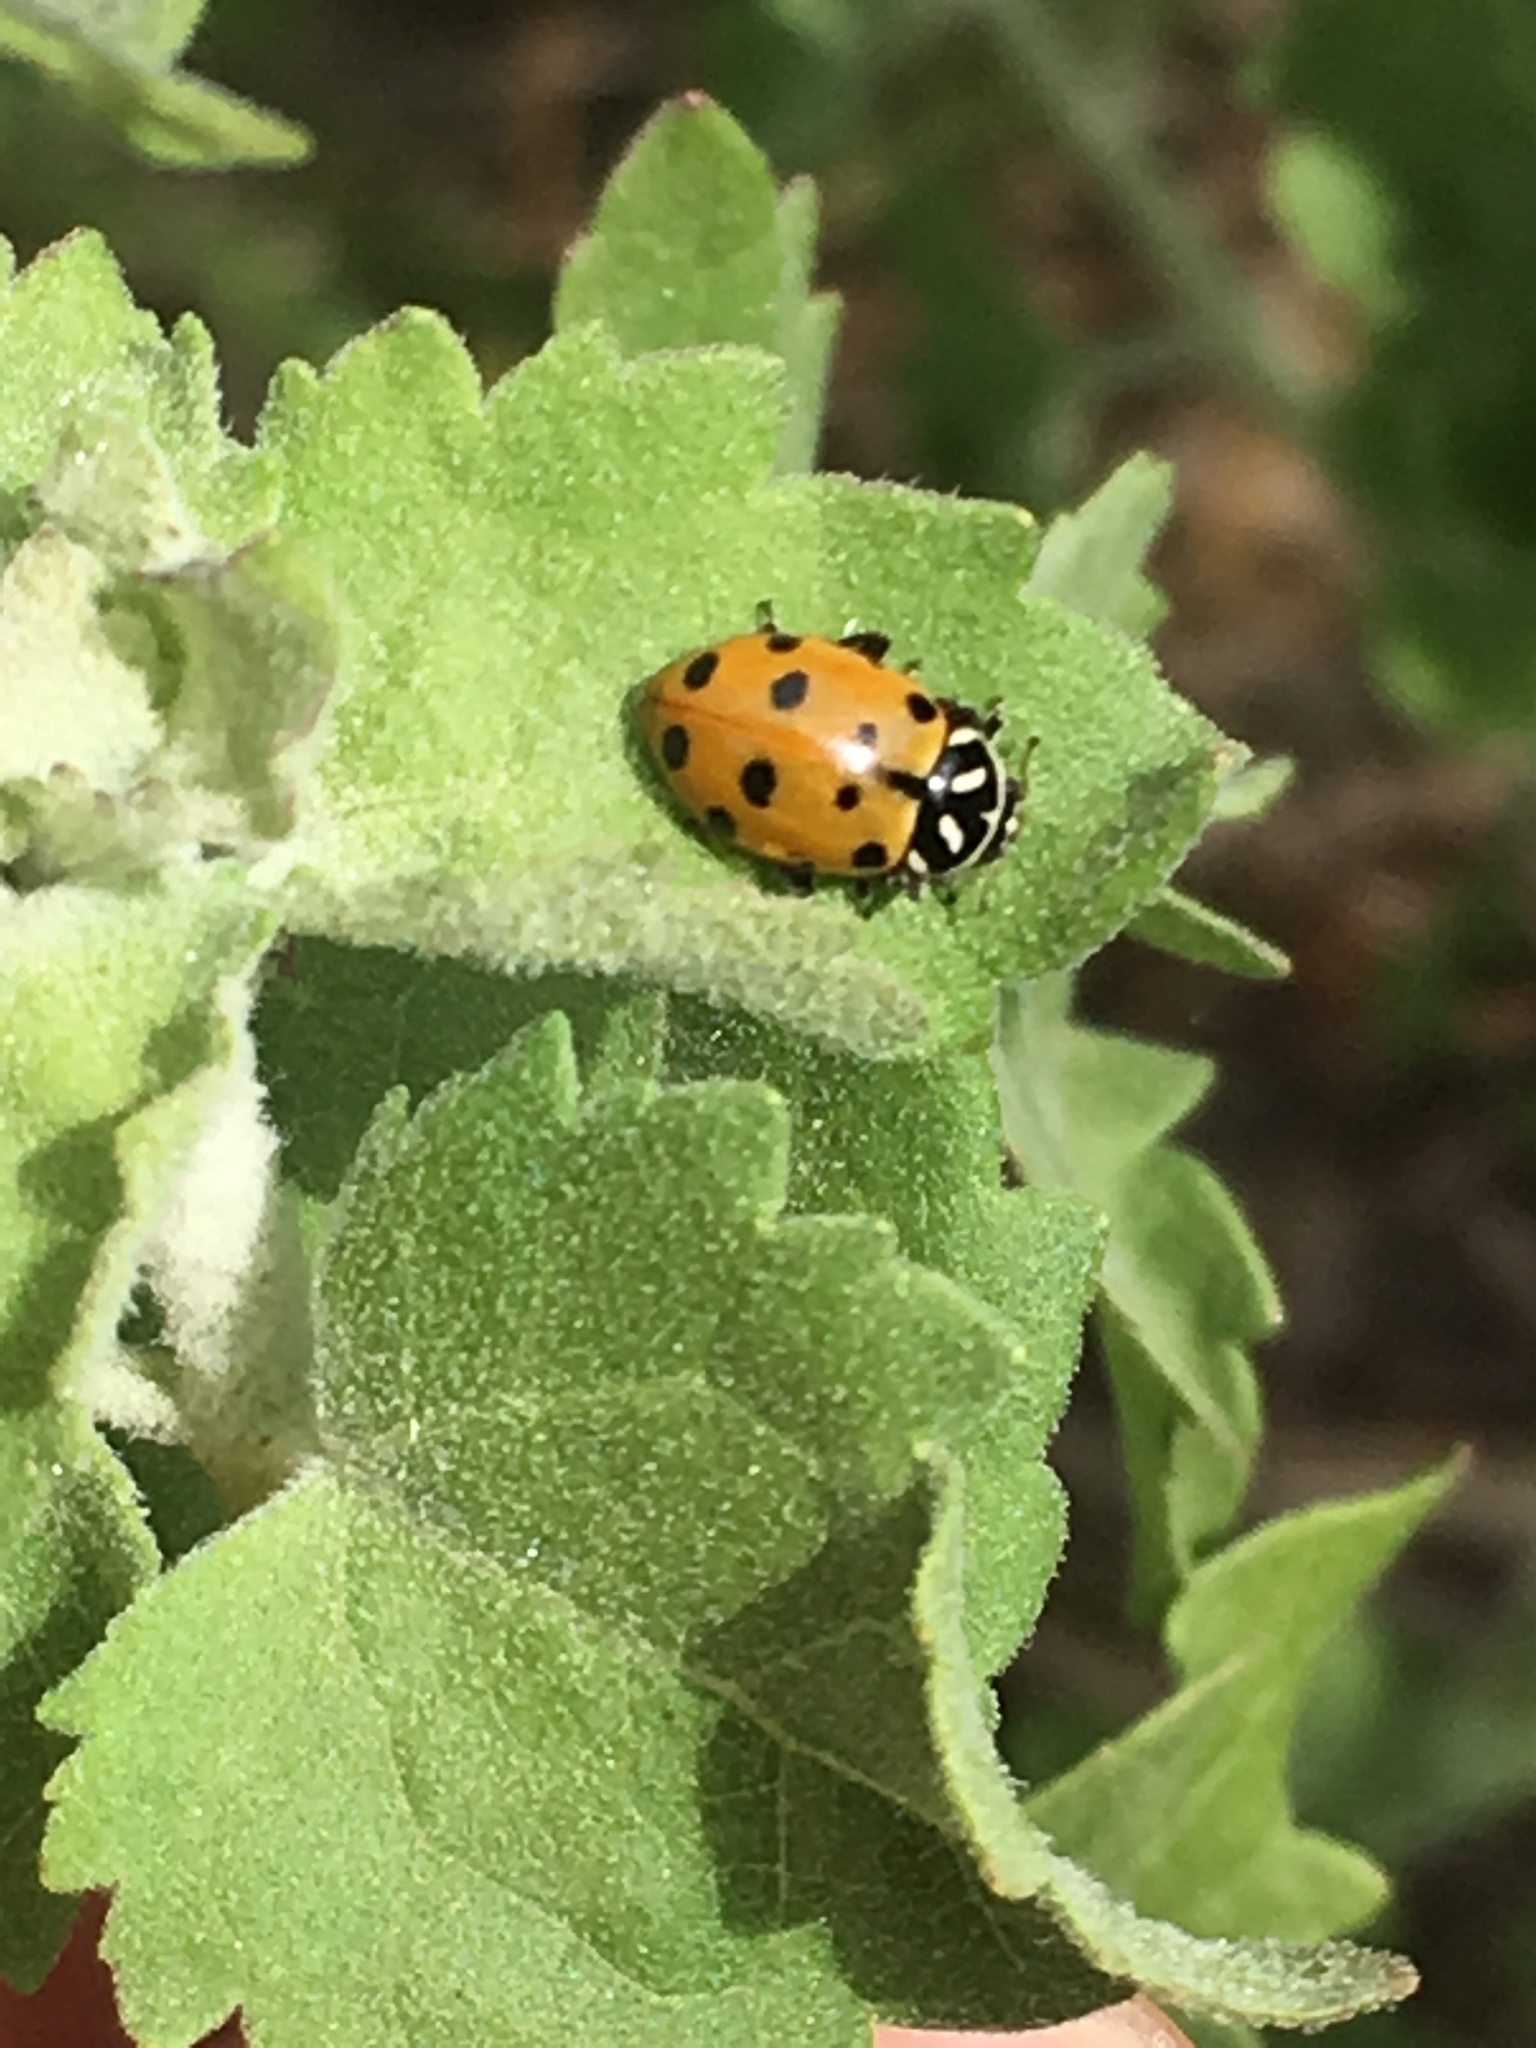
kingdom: Animalia
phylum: Arthropoda
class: Insecta
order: Coleoptera
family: Coccinellidae
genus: Hippodamia
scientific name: Hippodamia convergens
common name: Convergent lady beetle
